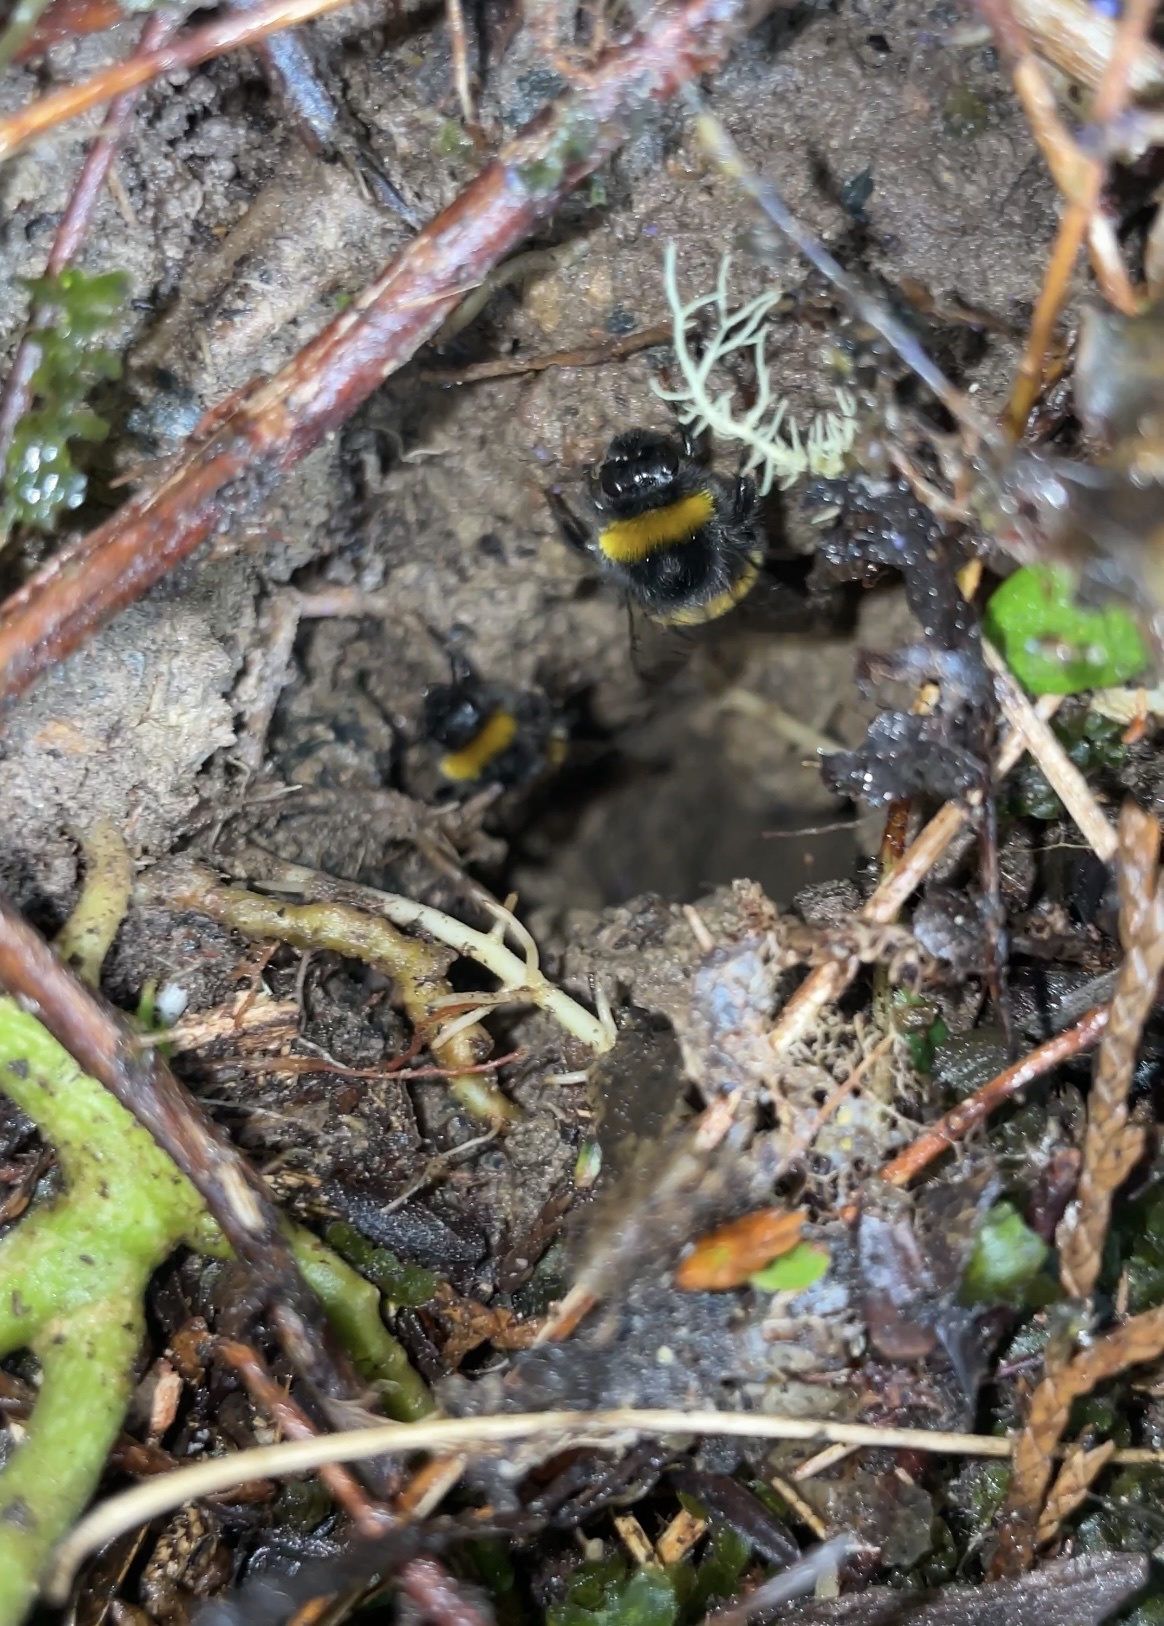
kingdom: Animalia
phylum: Arthropoda
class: Insecta
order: Hymenoptera
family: Apidae
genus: Bombus
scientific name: Bombus terrestris
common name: Buff-tailed bumblebee
